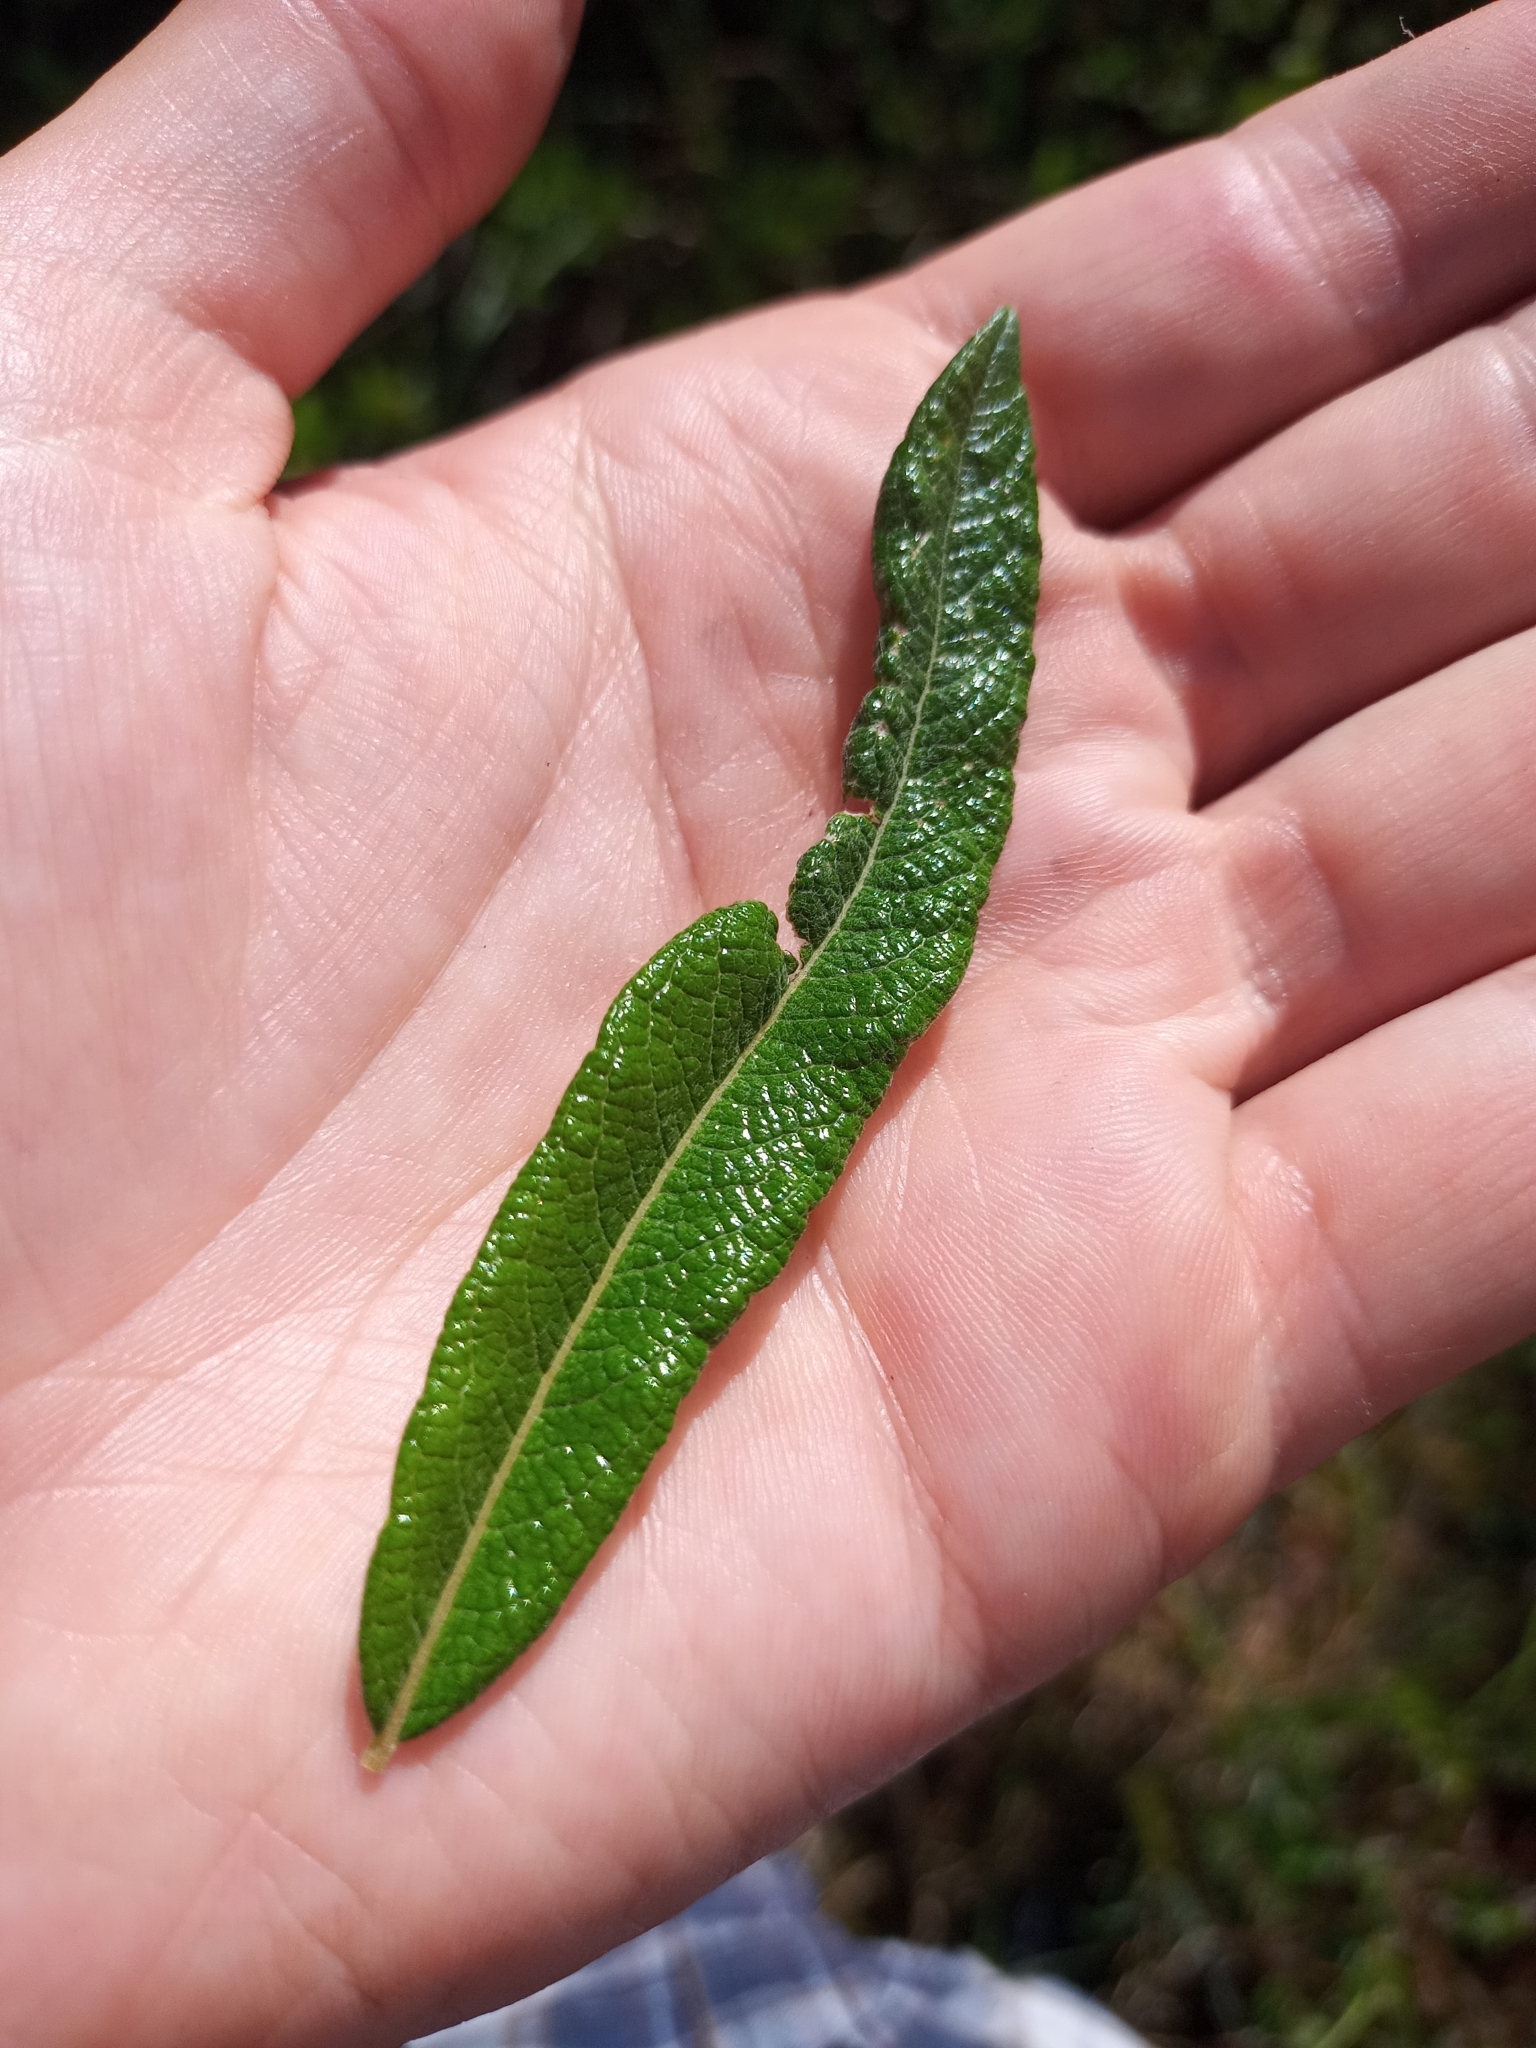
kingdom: Plantae
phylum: Tracheophyta
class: Magnoliopsida
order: Malpighiales
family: Salicaceae
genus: Salix
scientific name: Salix pellita
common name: Satiny willow
